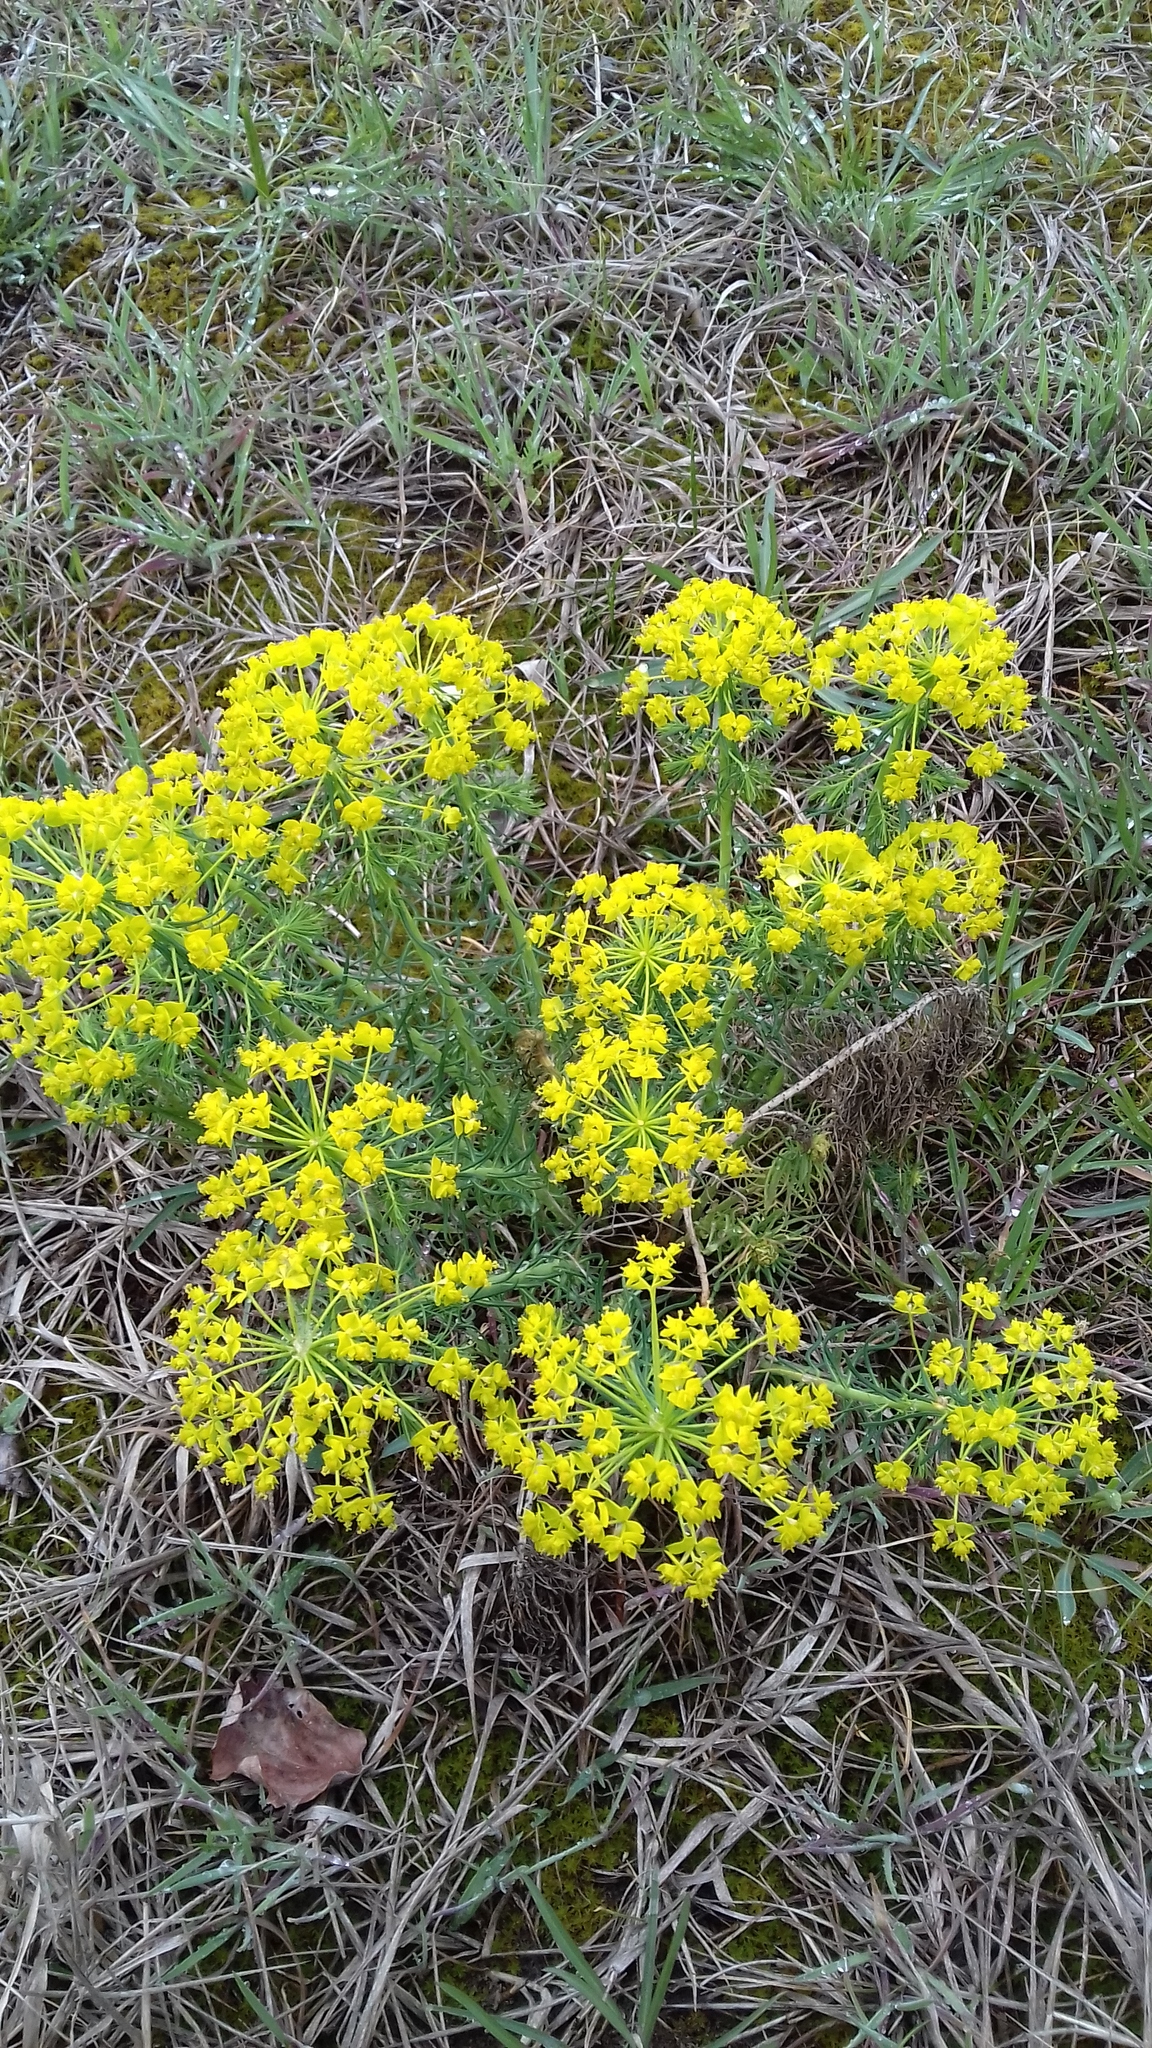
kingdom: Plantae
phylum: Tracheophyta
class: Magnoliopsida
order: Malpighiales
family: Euphorbiaceae
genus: Euphorbia
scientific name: Euphorbia cyparissias
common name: Cypress spurge
